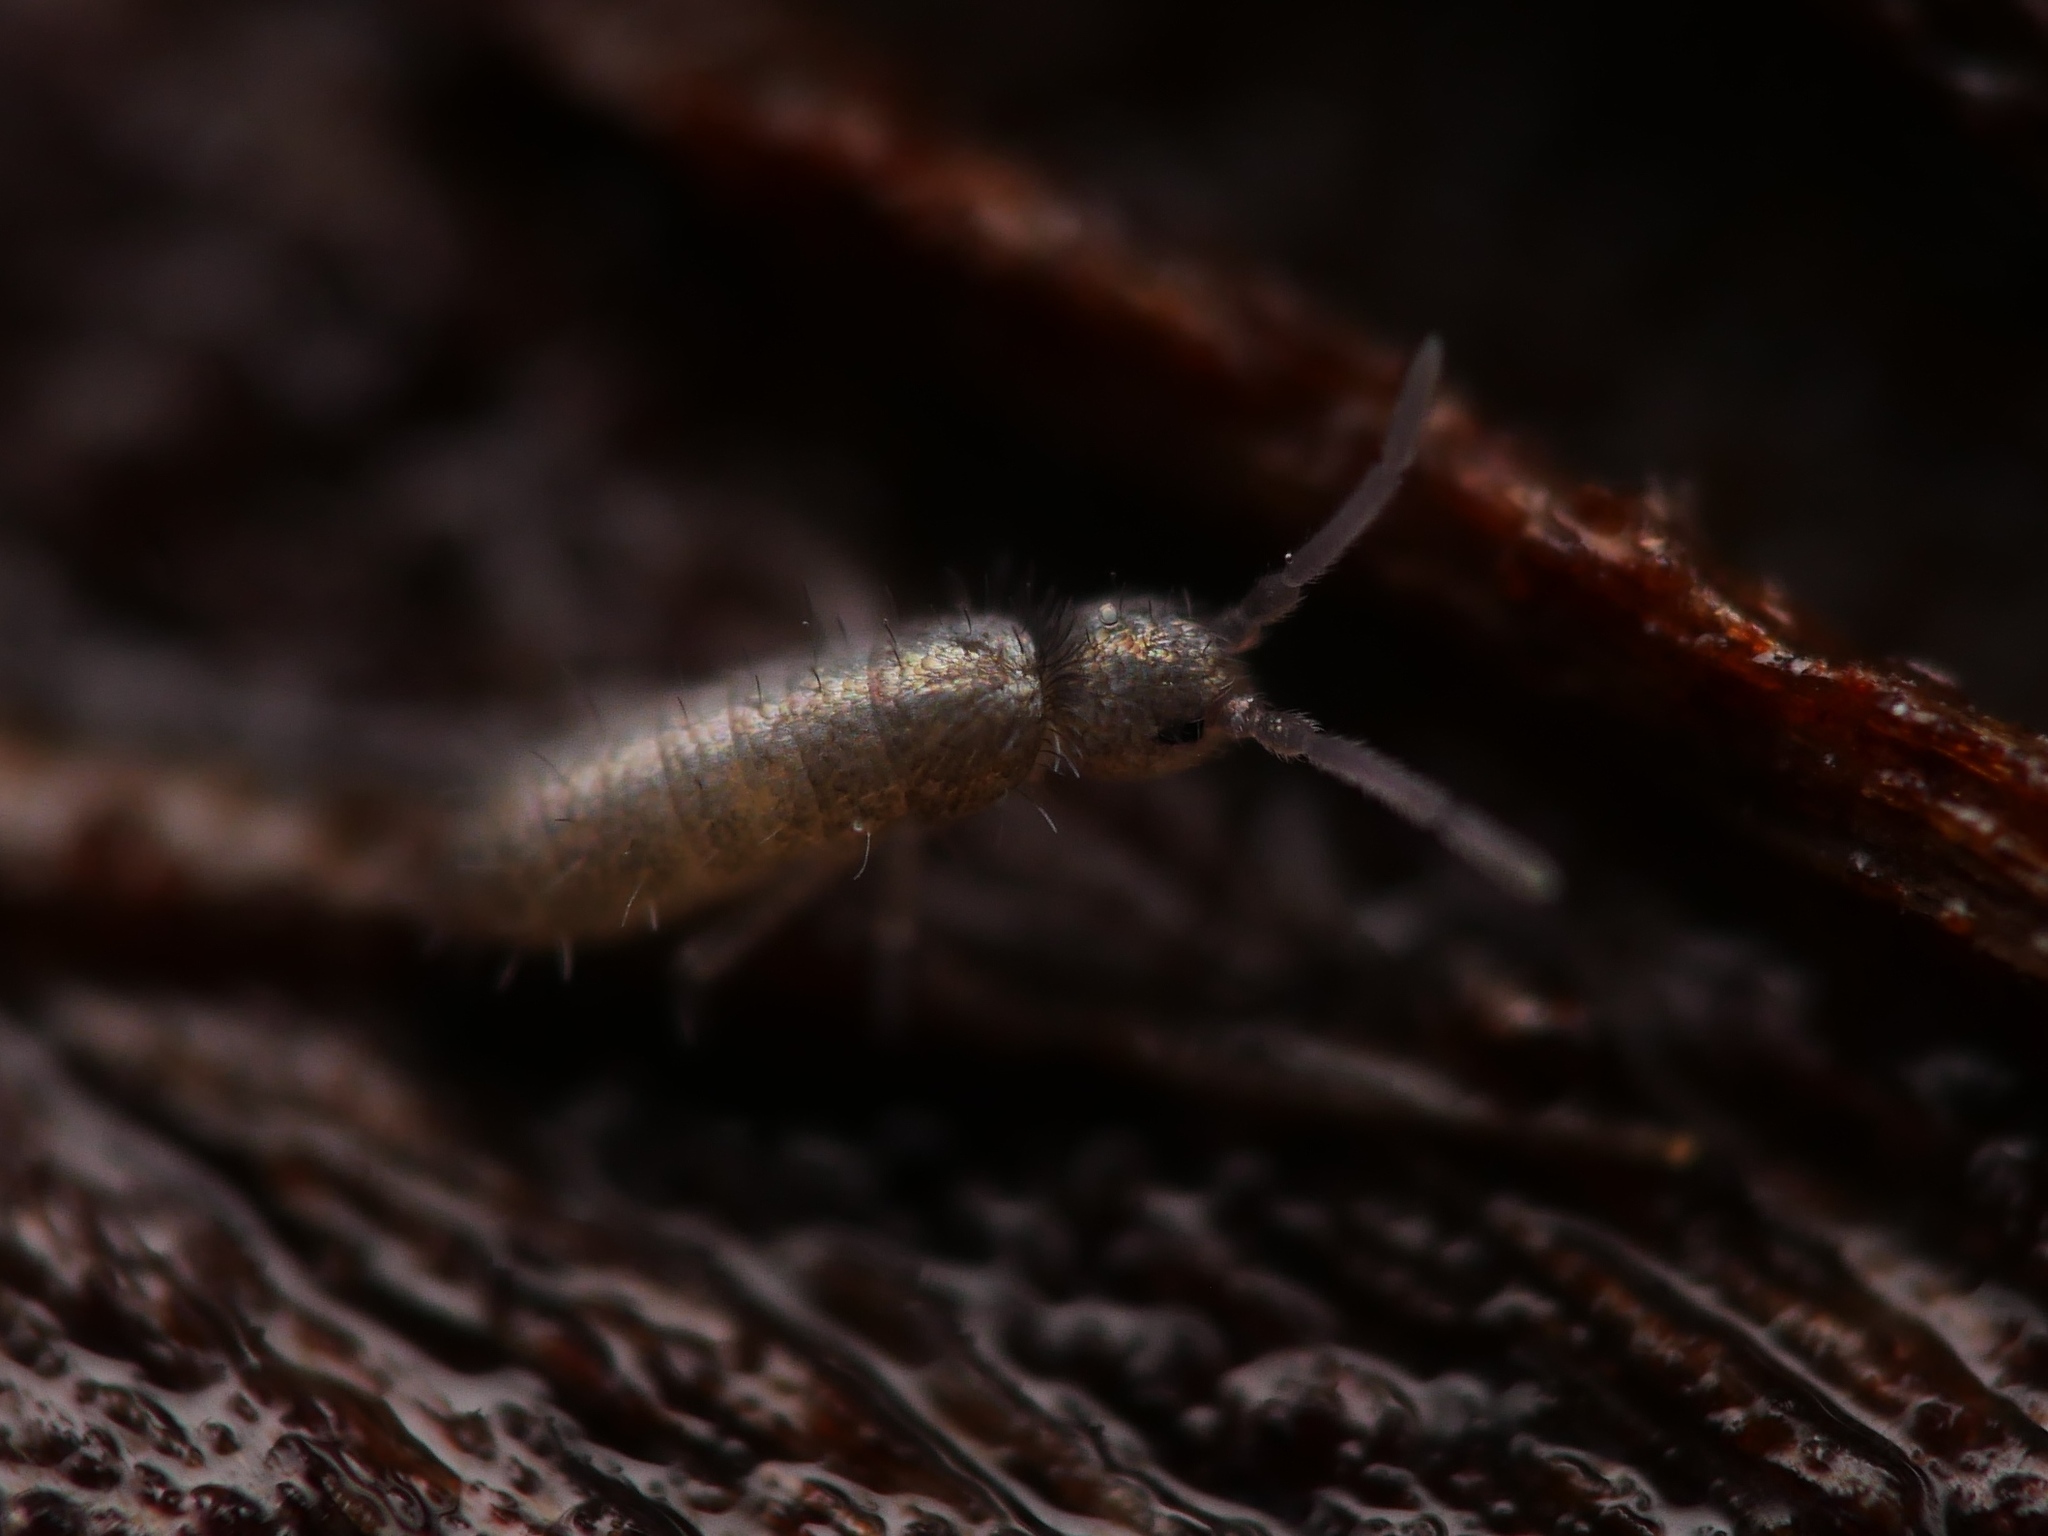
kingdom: Animalia
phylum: Arthropoda
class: Collembola
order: Entomobryomorpha
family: Tomoceridae
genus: Tomocerus
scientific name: Tomocerus minor
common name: Springtail
